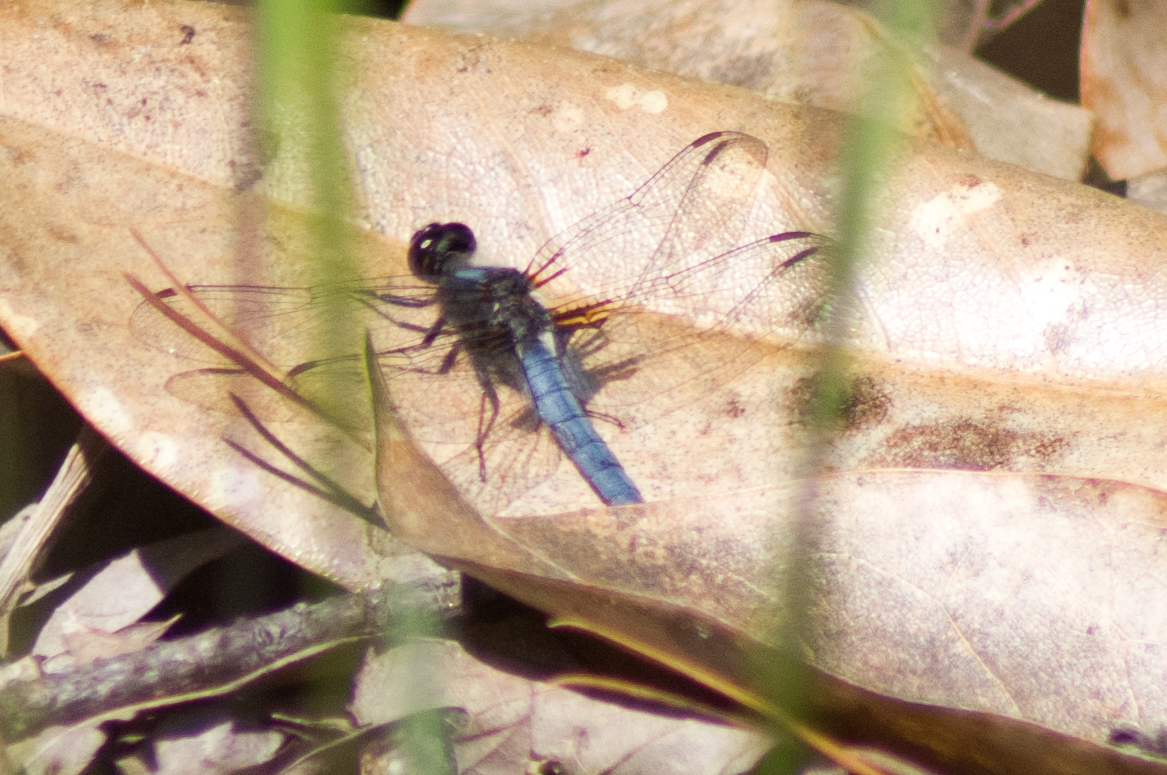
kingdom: Animalia
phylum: Arthropoda
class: Insecta
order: Odonata
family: Libellulidae
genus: Ladona
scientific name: Ladona deplanata
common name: Blue corporal
